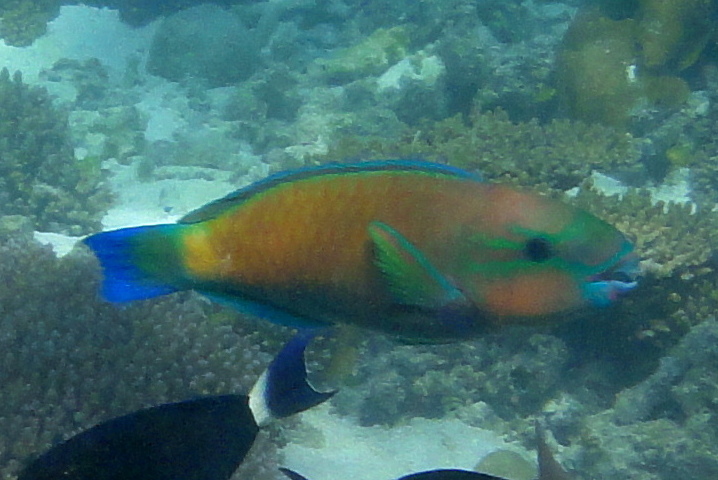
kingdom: Animalia
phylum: Chordata
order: Perciformes
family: Scaridae
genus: Chlorurus
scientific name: Chlorurus spilurus
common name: Bullethead parrotfish
